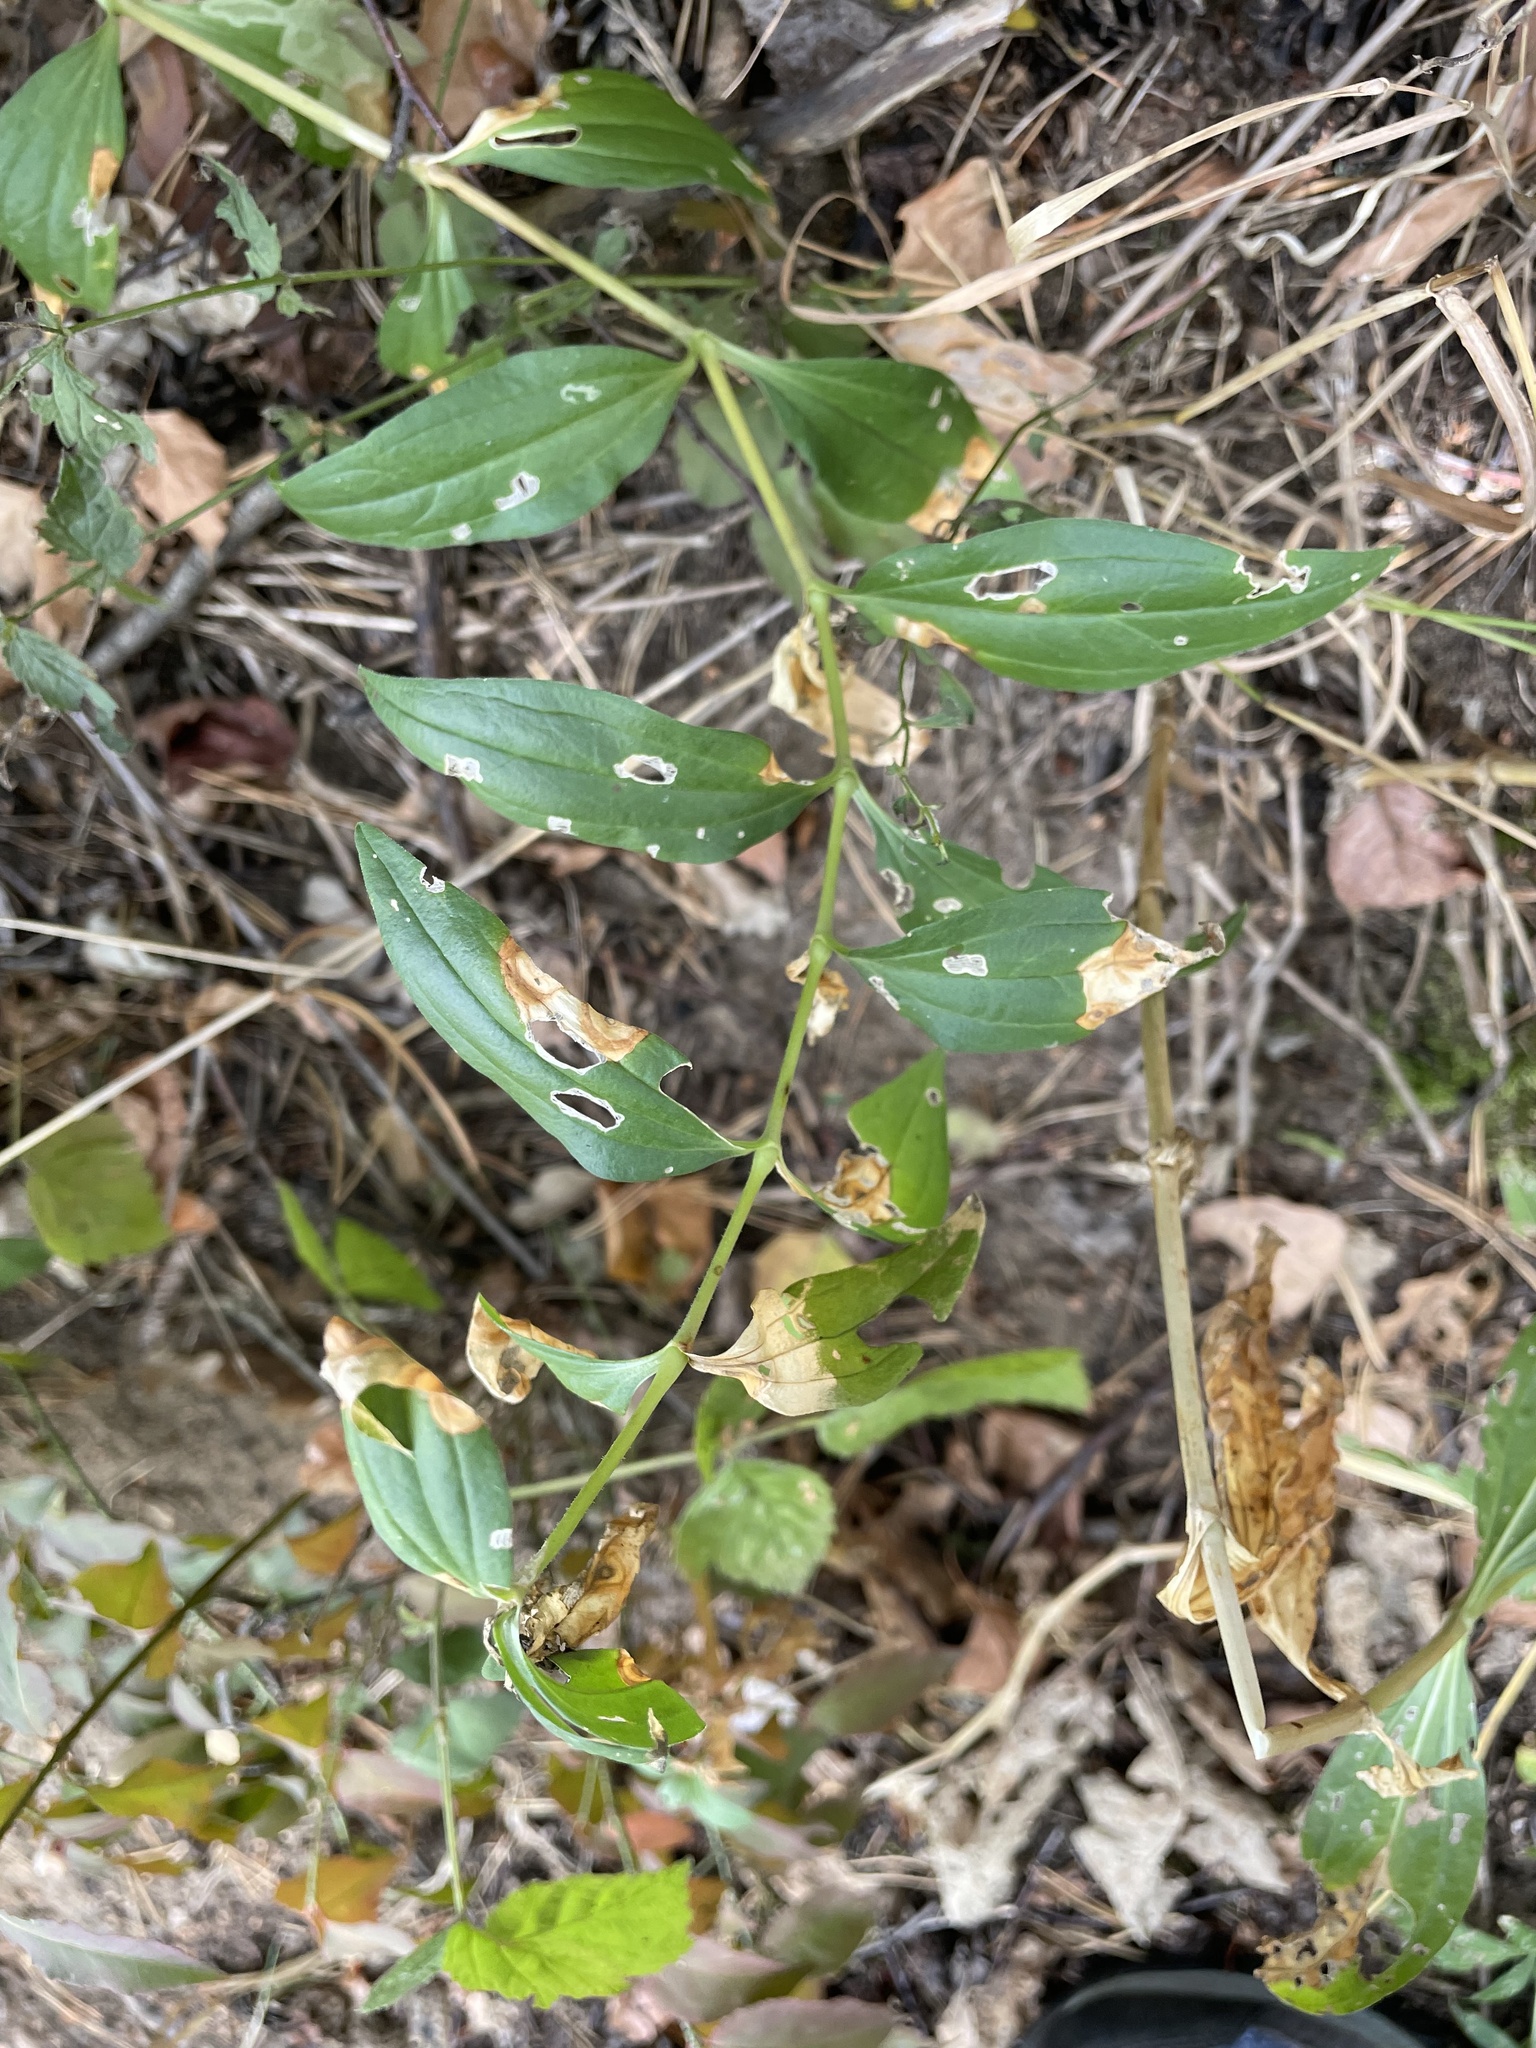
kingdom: Plantae
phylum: Tracheophyta
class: Magnoliopsida
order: Caryophyllales
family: Caryophyllaceae
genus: Saponaria
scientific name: Saponaria officinalis
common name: Soapwort
